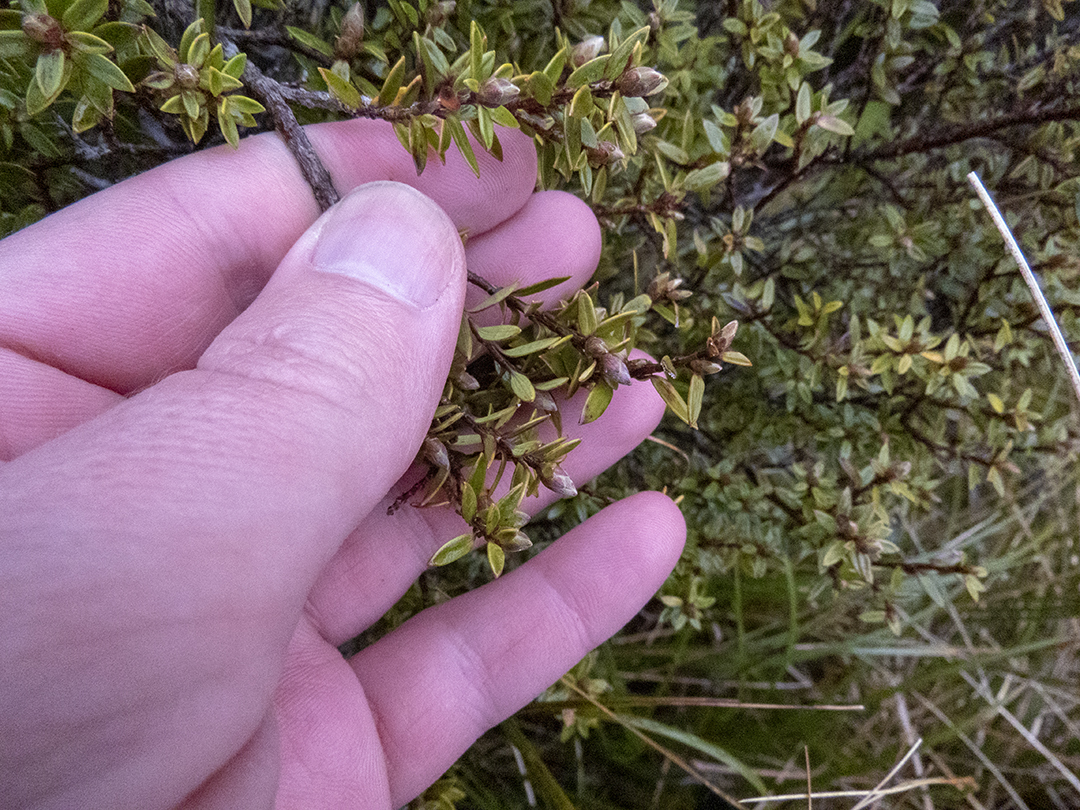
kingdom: Plantae
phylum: Tracheophyta
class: Magnoliopsida
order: Ericales
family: Ericaceae
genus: Archeria
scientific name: Archeria traversii
